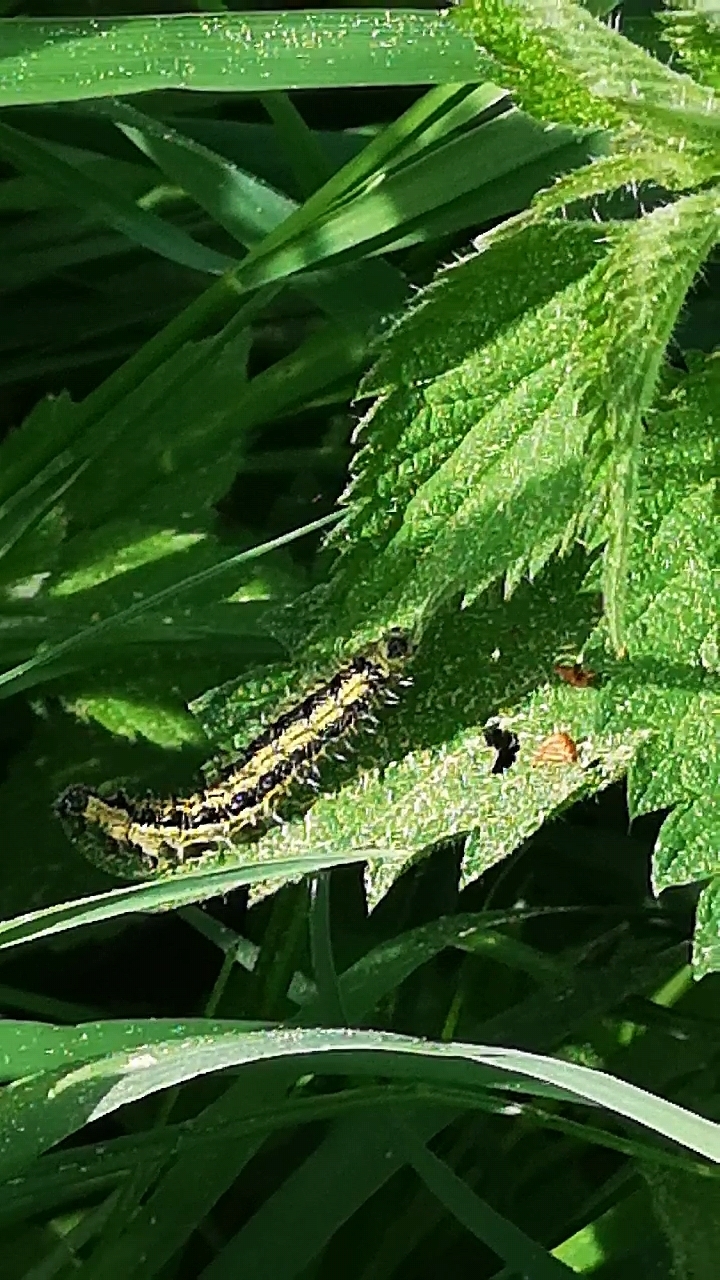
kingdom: Animalia
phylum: Arthropoda
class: Insecta
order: Lepidoptera
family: Nymphalidae
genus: Aglais
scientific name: Aglais urticae
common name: Small tortoiseshell
